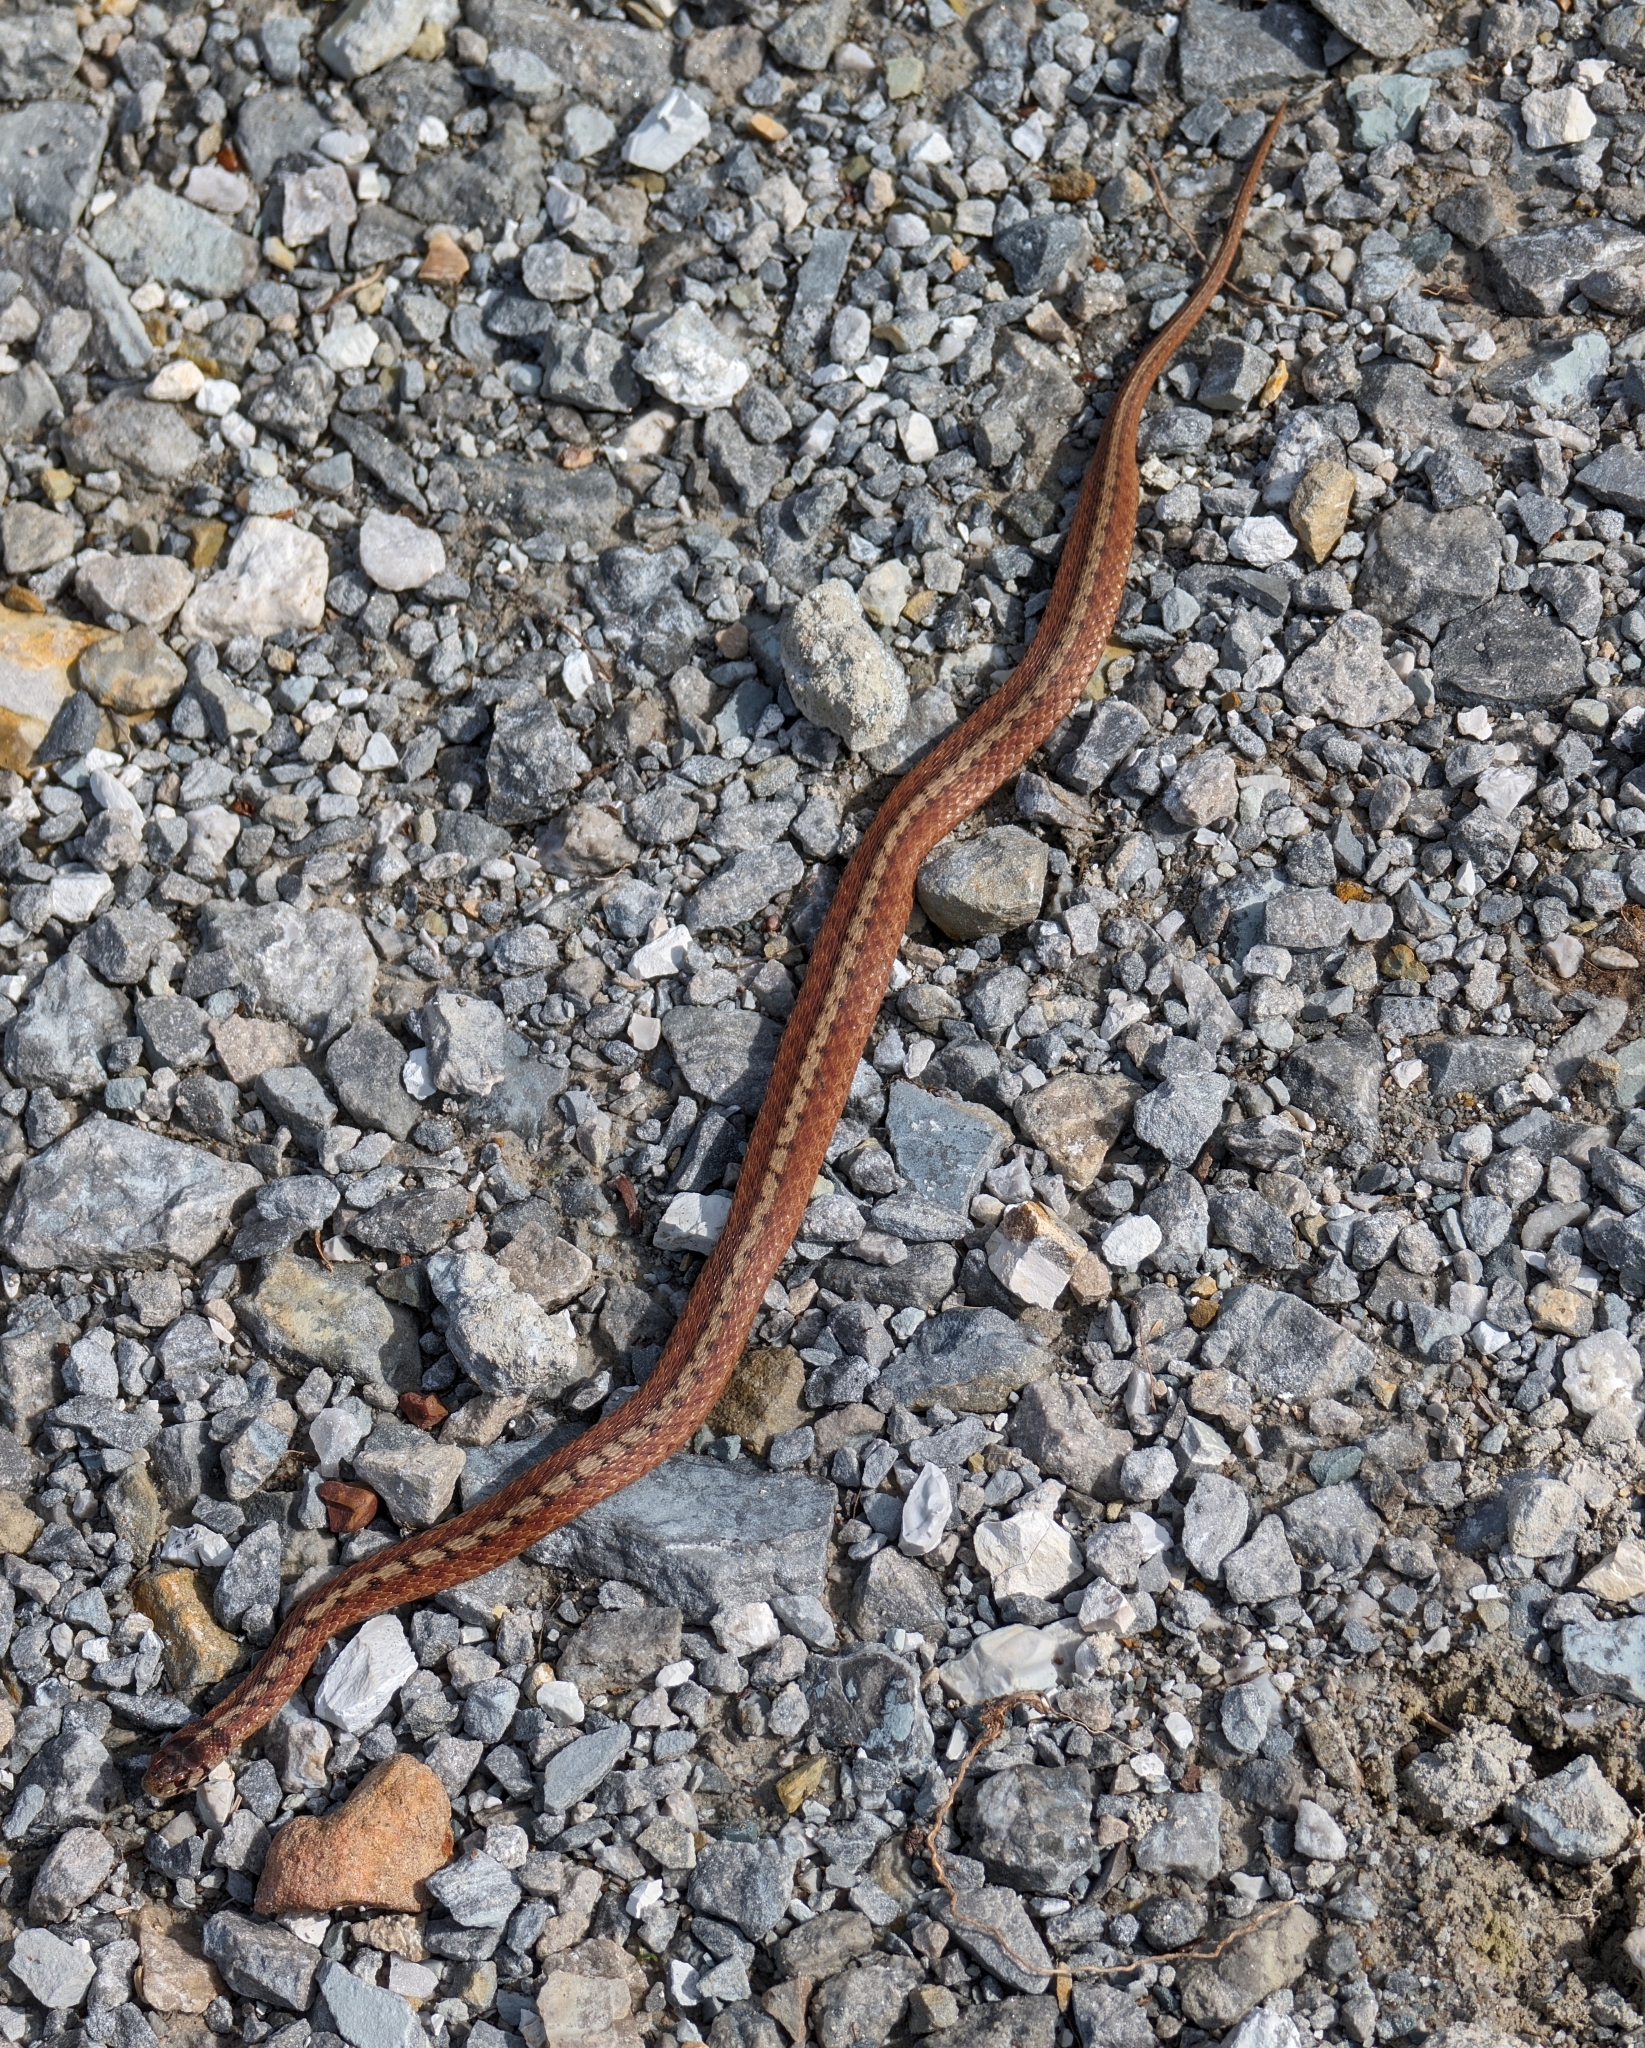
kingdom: Animalia
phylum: Chordata
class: Squamata
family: Colubridae
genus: Storeria
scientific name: Storeria dekayi
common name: (dekay’s) brown snake
